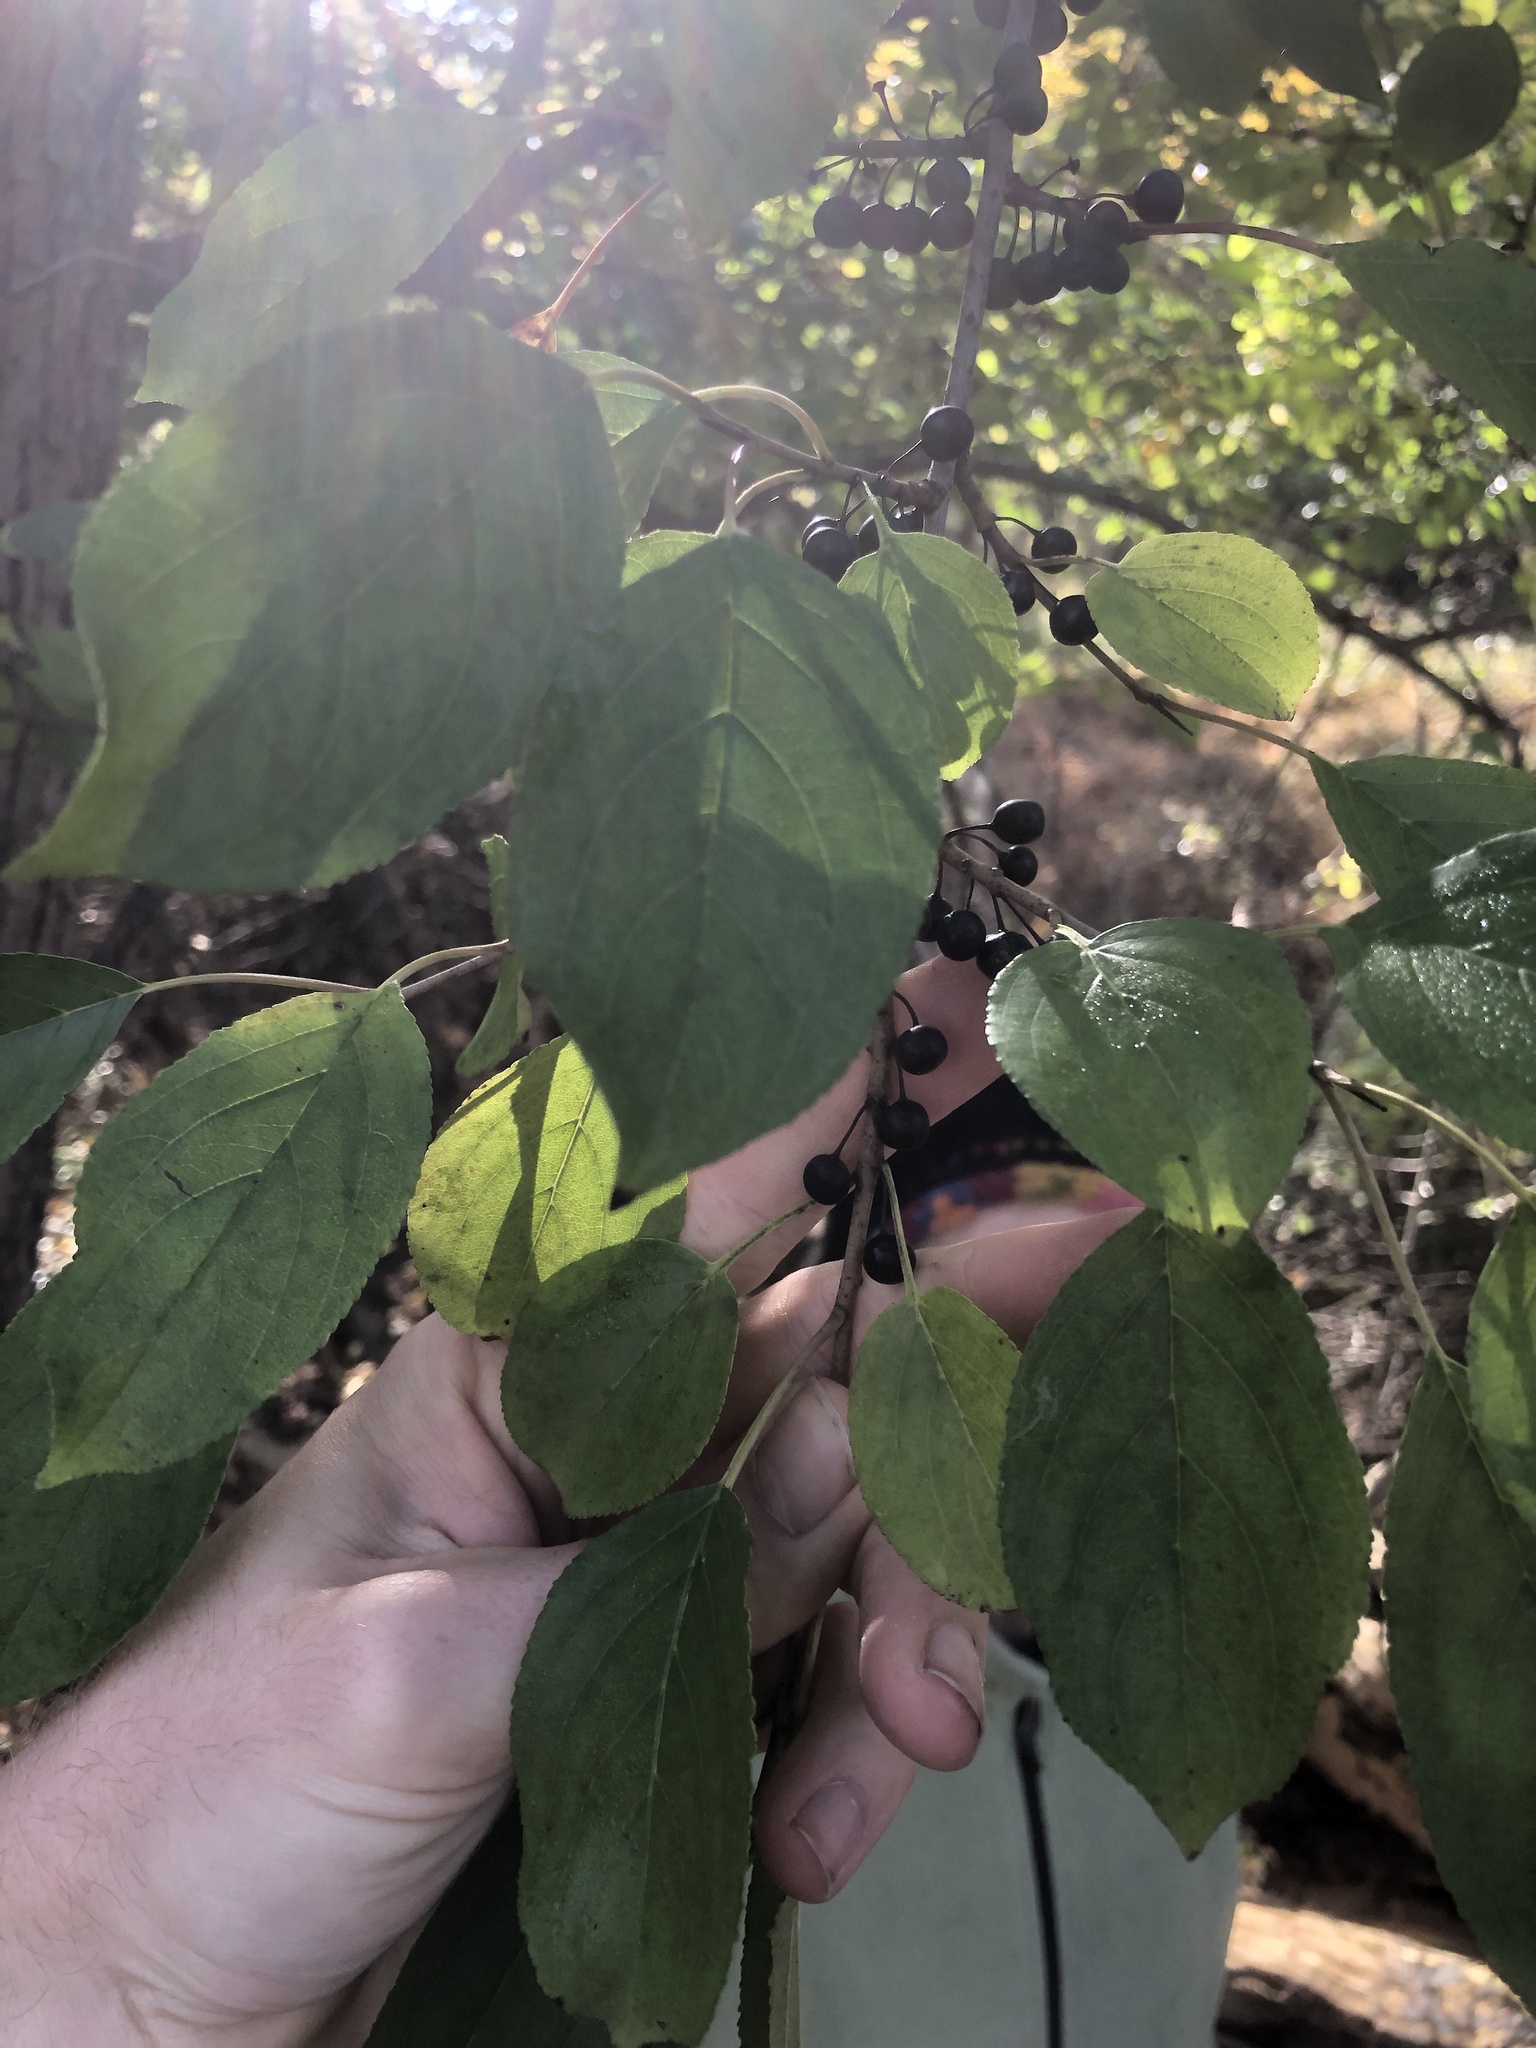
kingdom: Plantae
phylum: Tracheophyta
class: Magnoliopsida
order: Rosales
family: Rhamnaceae
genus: Rhamnus
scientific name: Rhamnus cathartica
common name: Common buckthorn
